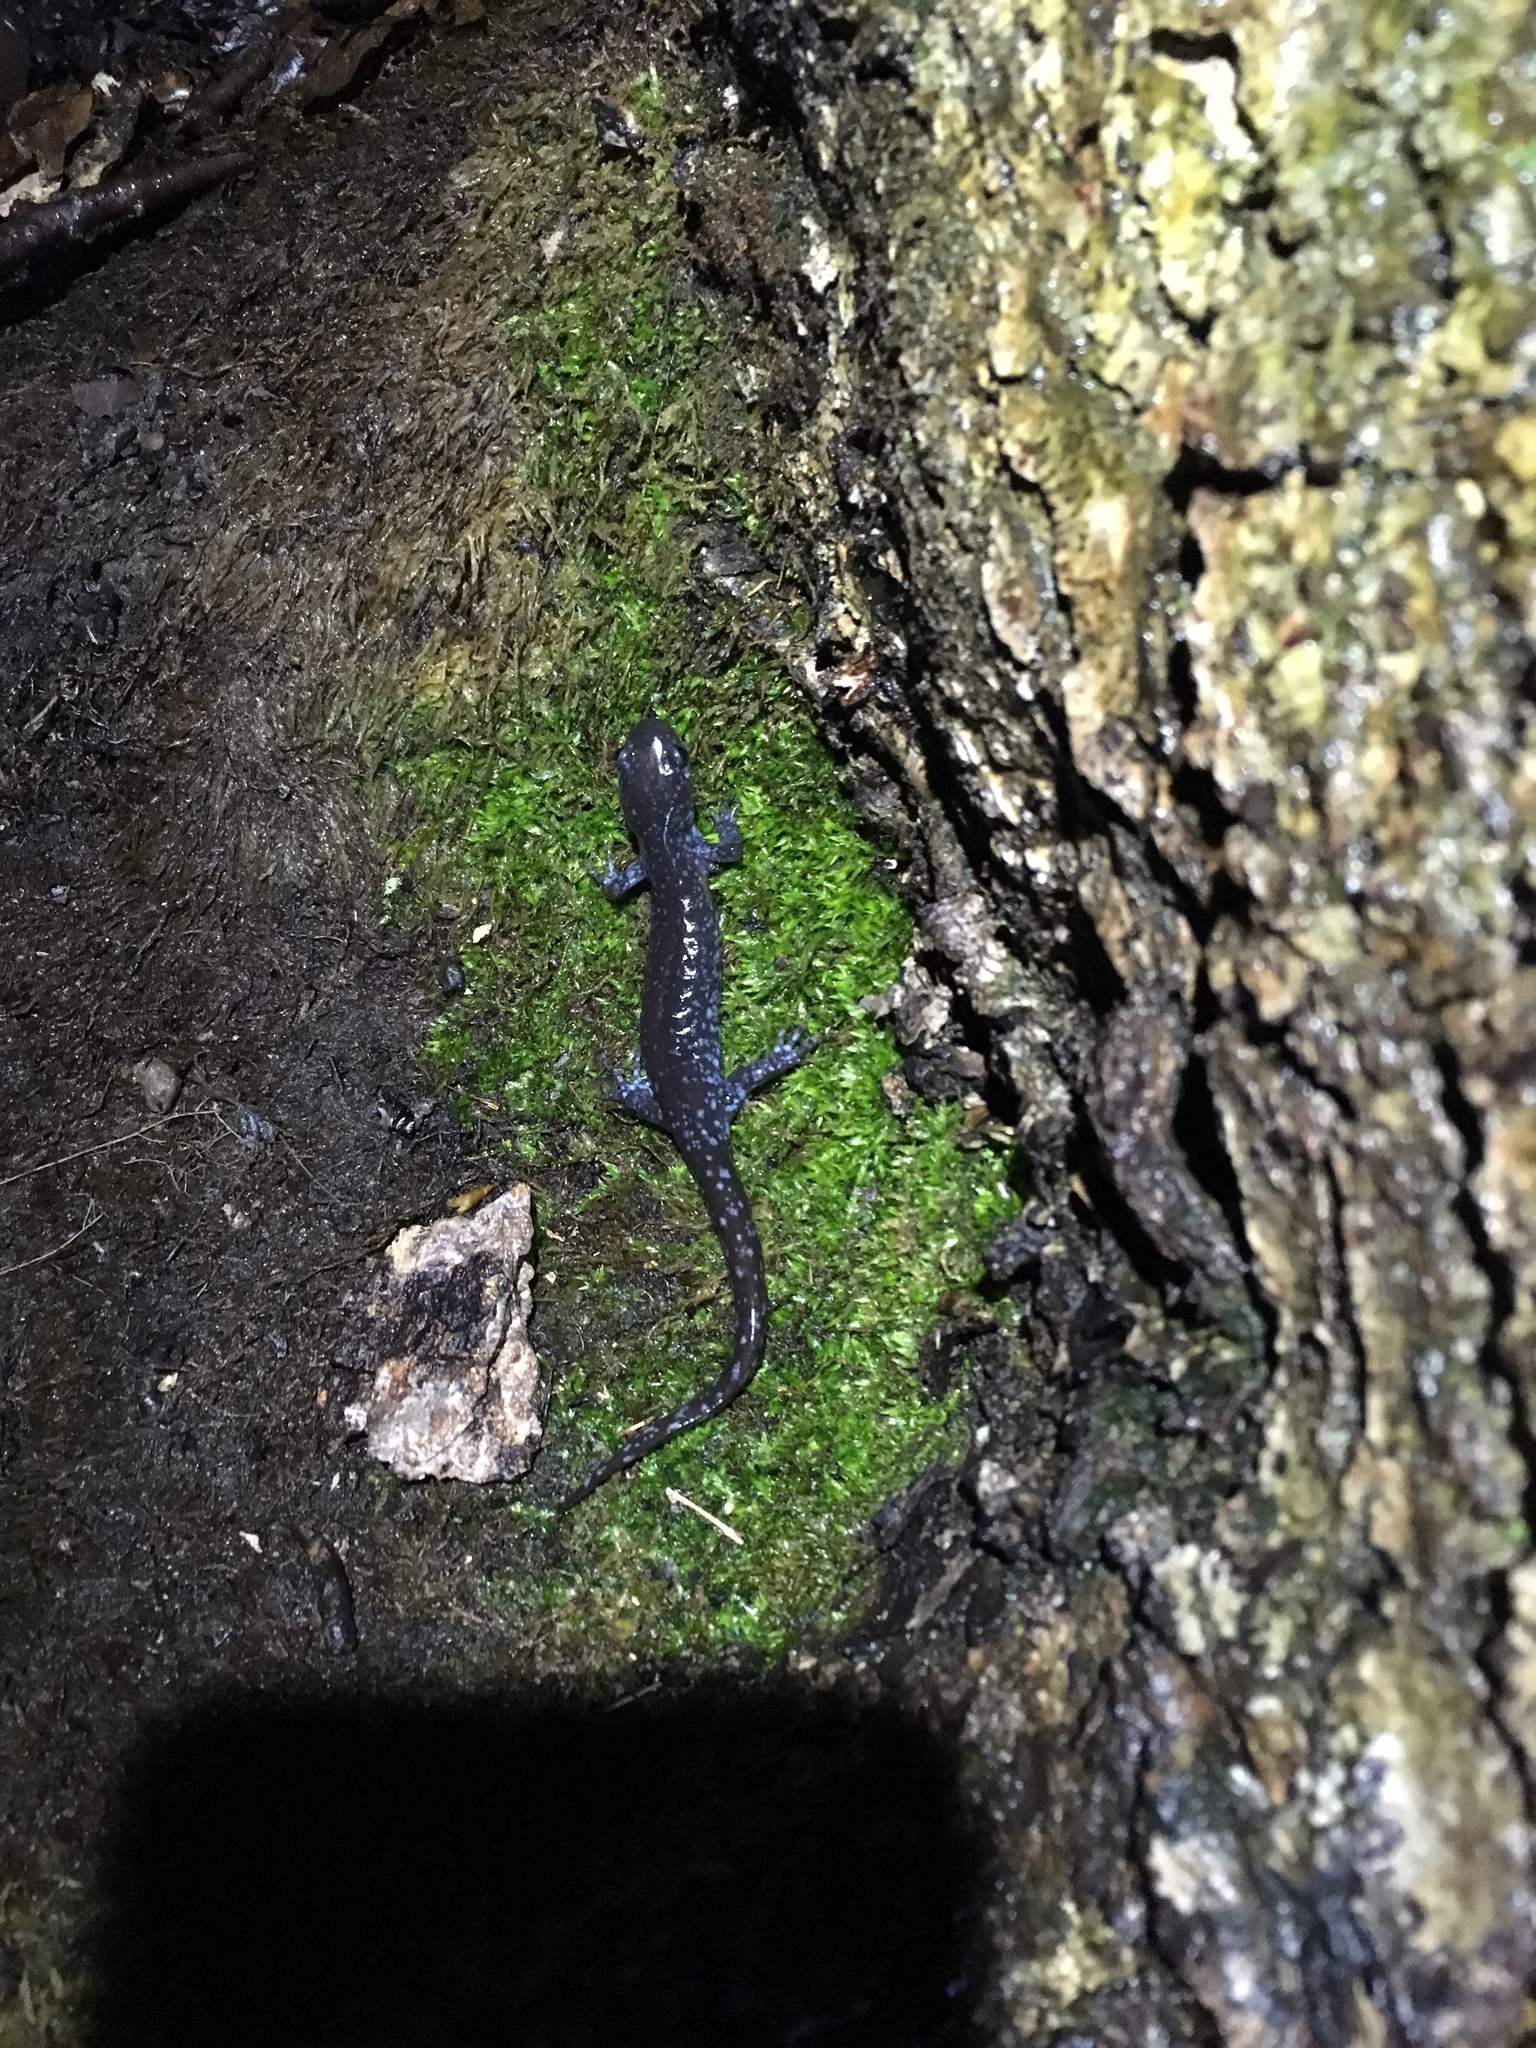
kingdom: Animalia
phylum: Chordata
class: Amphibia
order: Caudata
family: Ambystomatidae
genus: Ambystoma
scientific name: Ambystoma laterale
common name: Blue-spotted salamander
